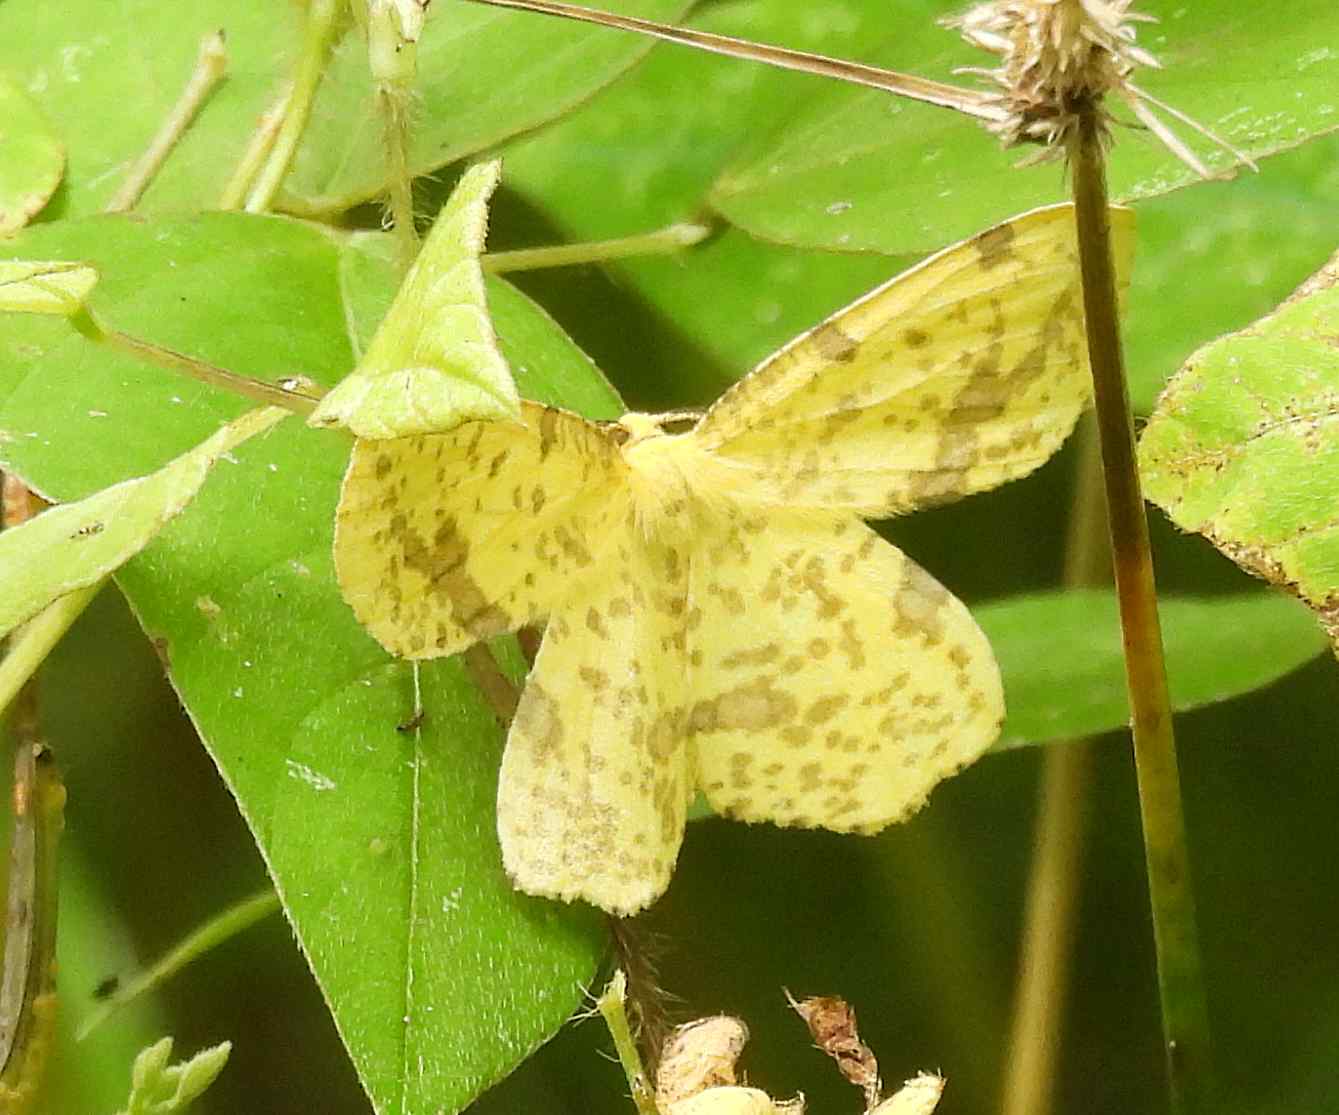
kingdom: Animalia
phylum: Arthropoda
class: Insecta
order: Lepidoptera
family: Geometridae
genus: Xanthotype
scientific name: Xanthotype
